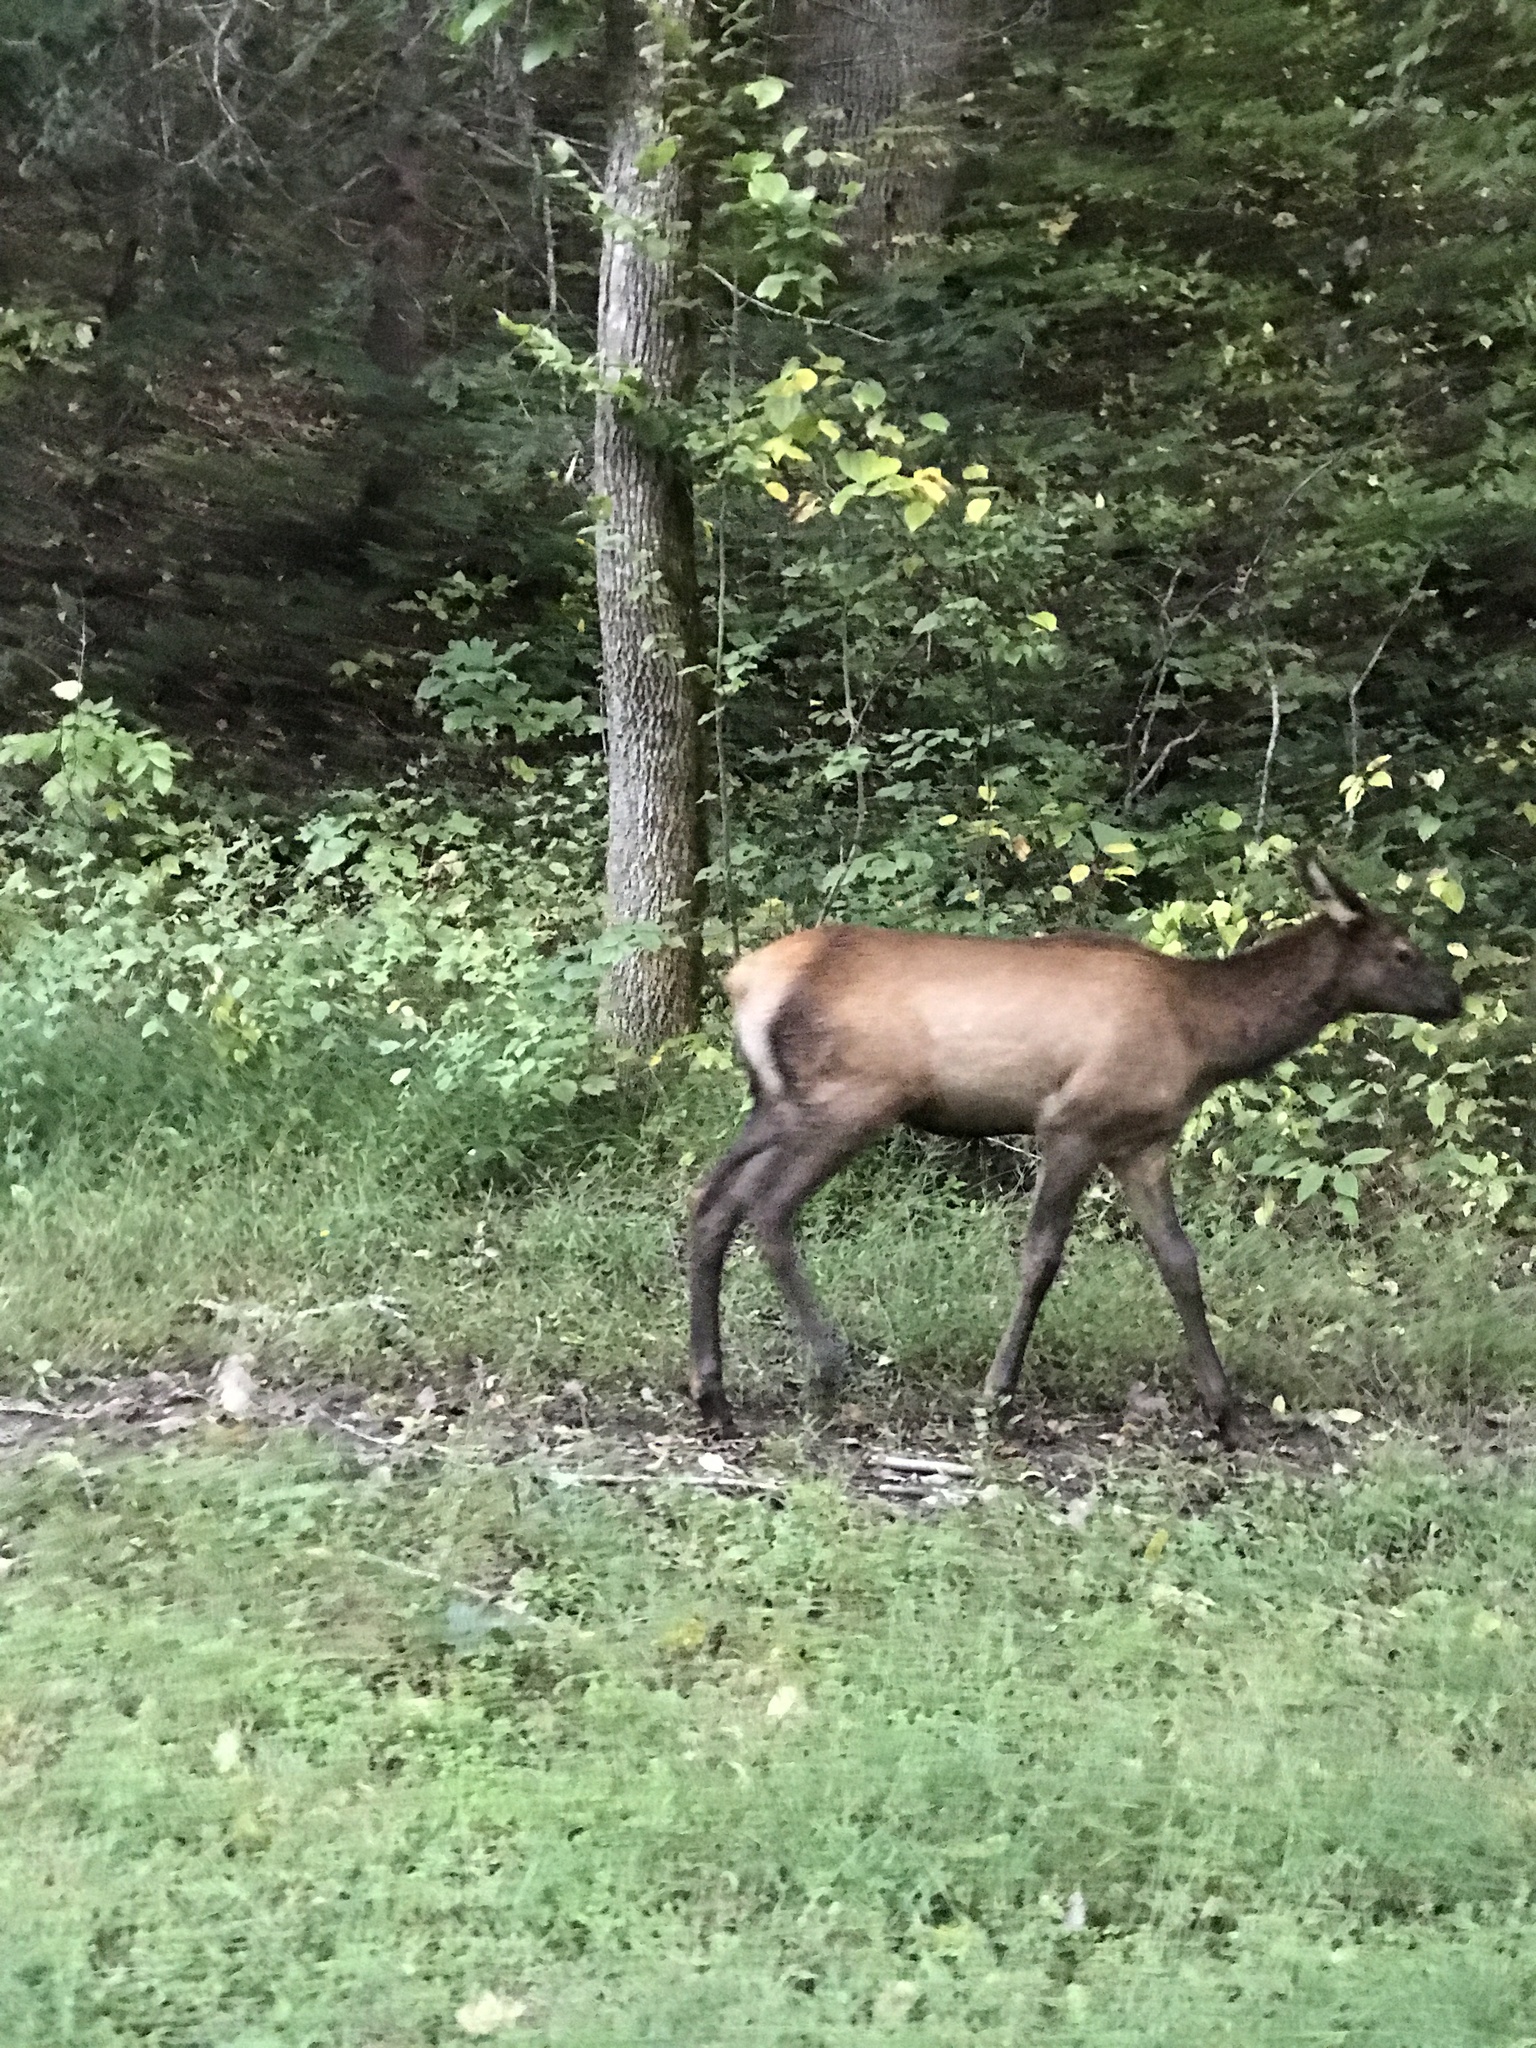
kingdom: Animalia
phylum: Chordata
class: Mammalia
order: Artiodactyla
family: Cervidae
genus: Cervus
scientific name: Cervus elaphus
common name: Red deer
